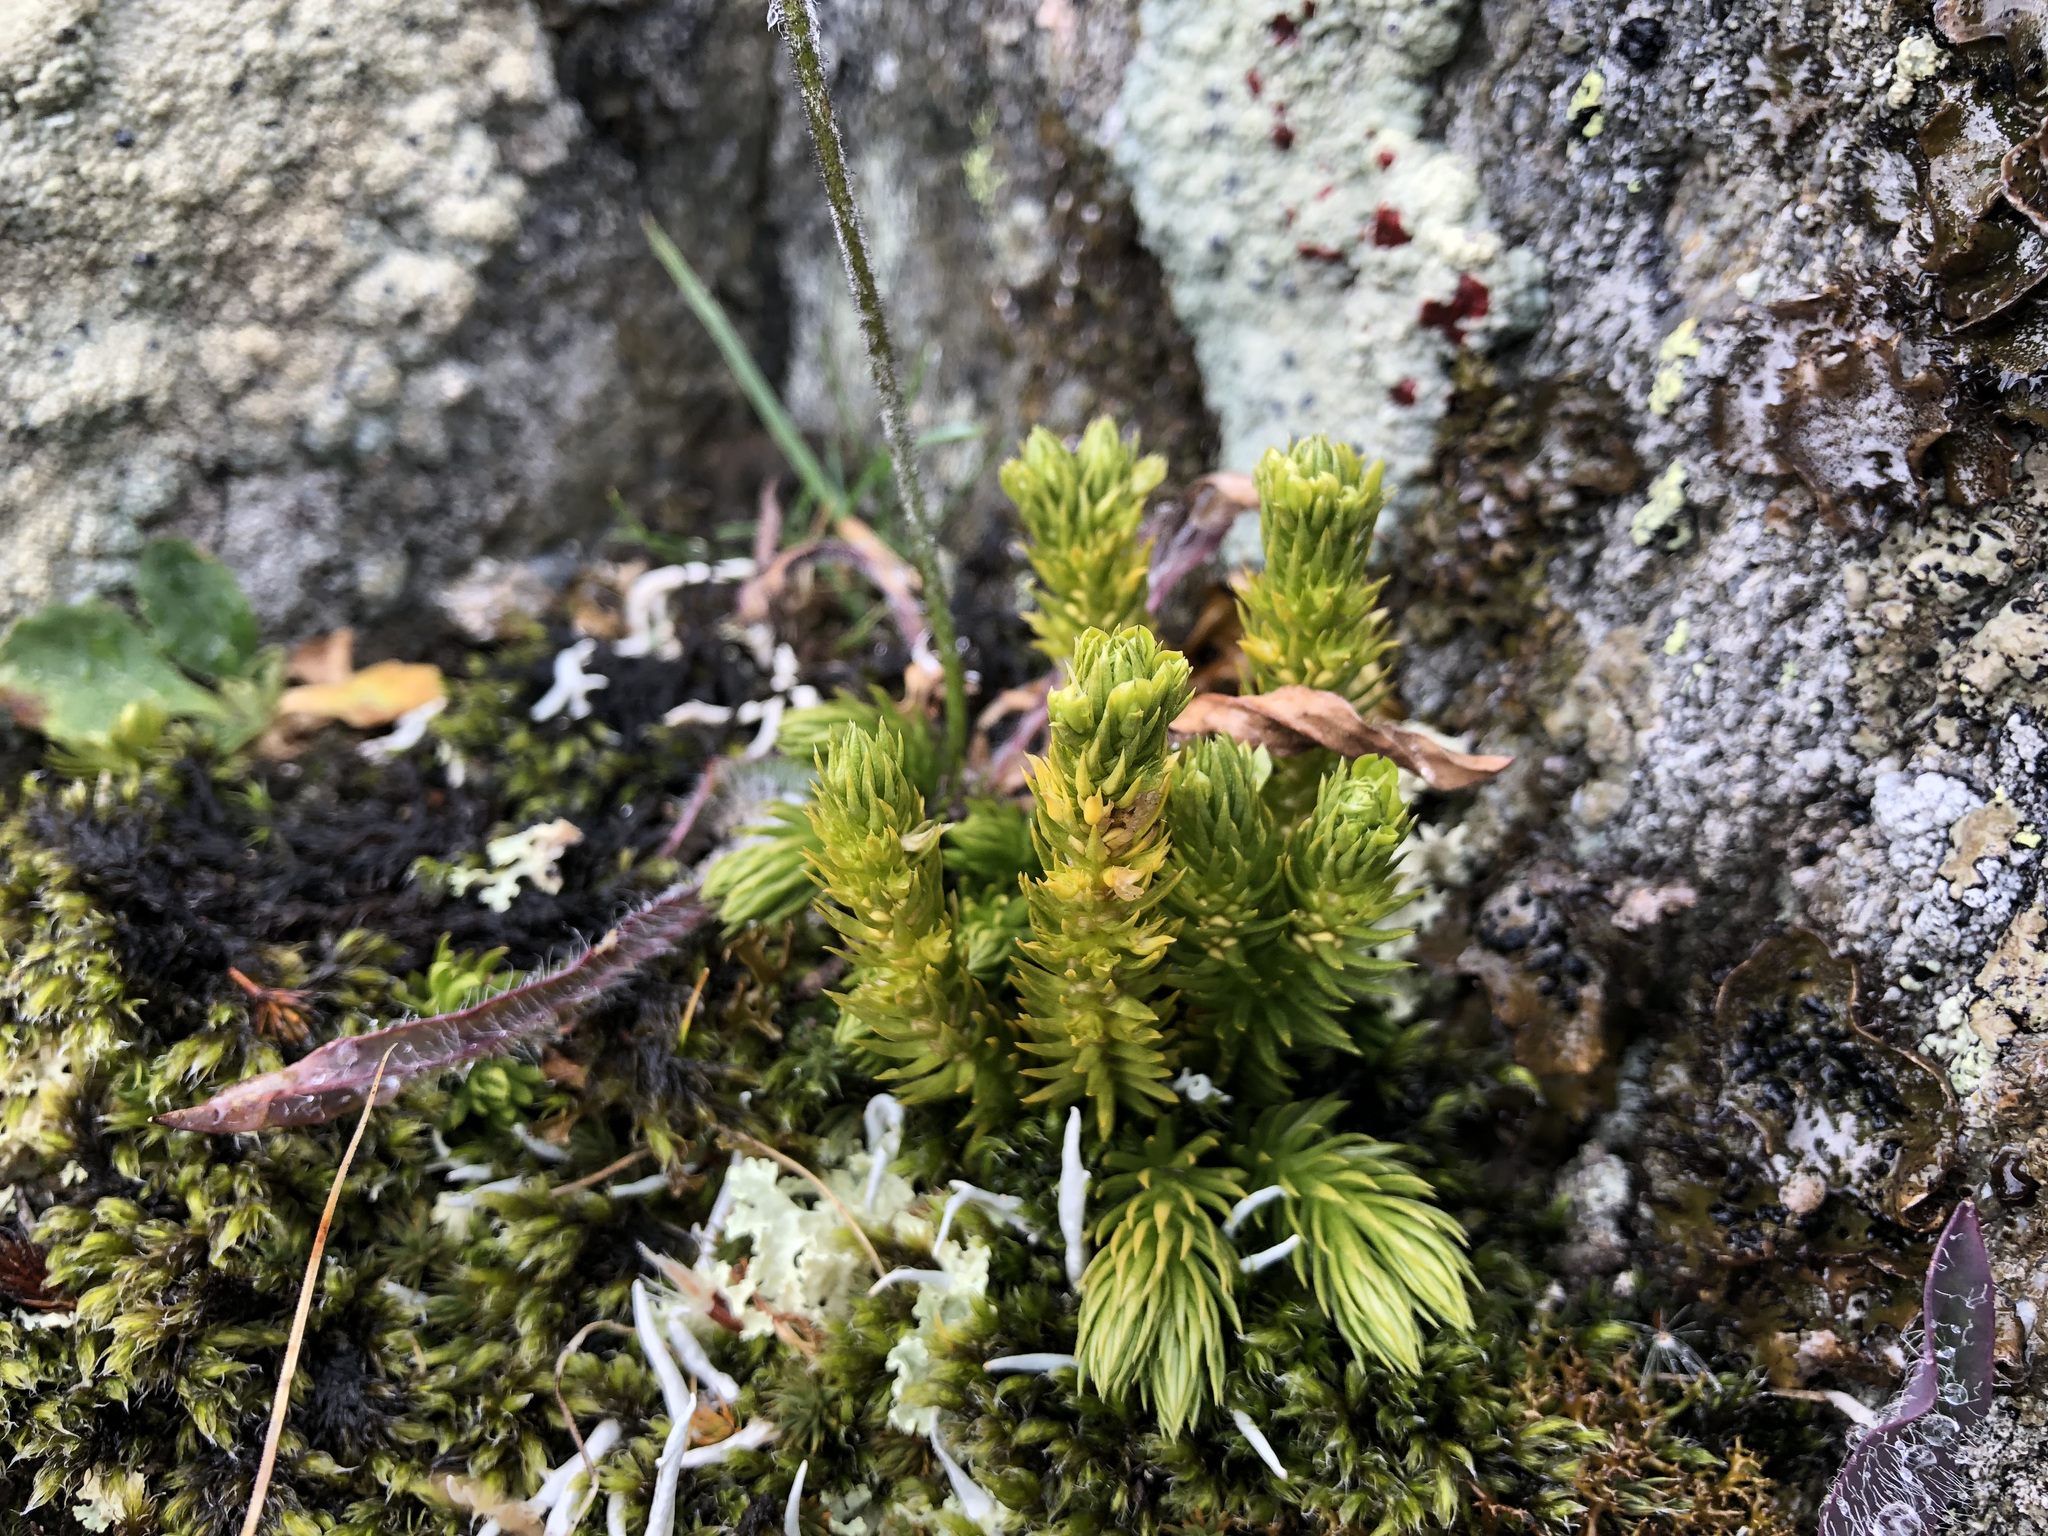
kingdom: Plantae
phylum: Tracheophyta
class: Lycopodiopsida
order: Lycopodiales
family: Lycopodiaceae
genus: Huperzia
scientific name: Huperzia selago
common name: Northern firmoss
